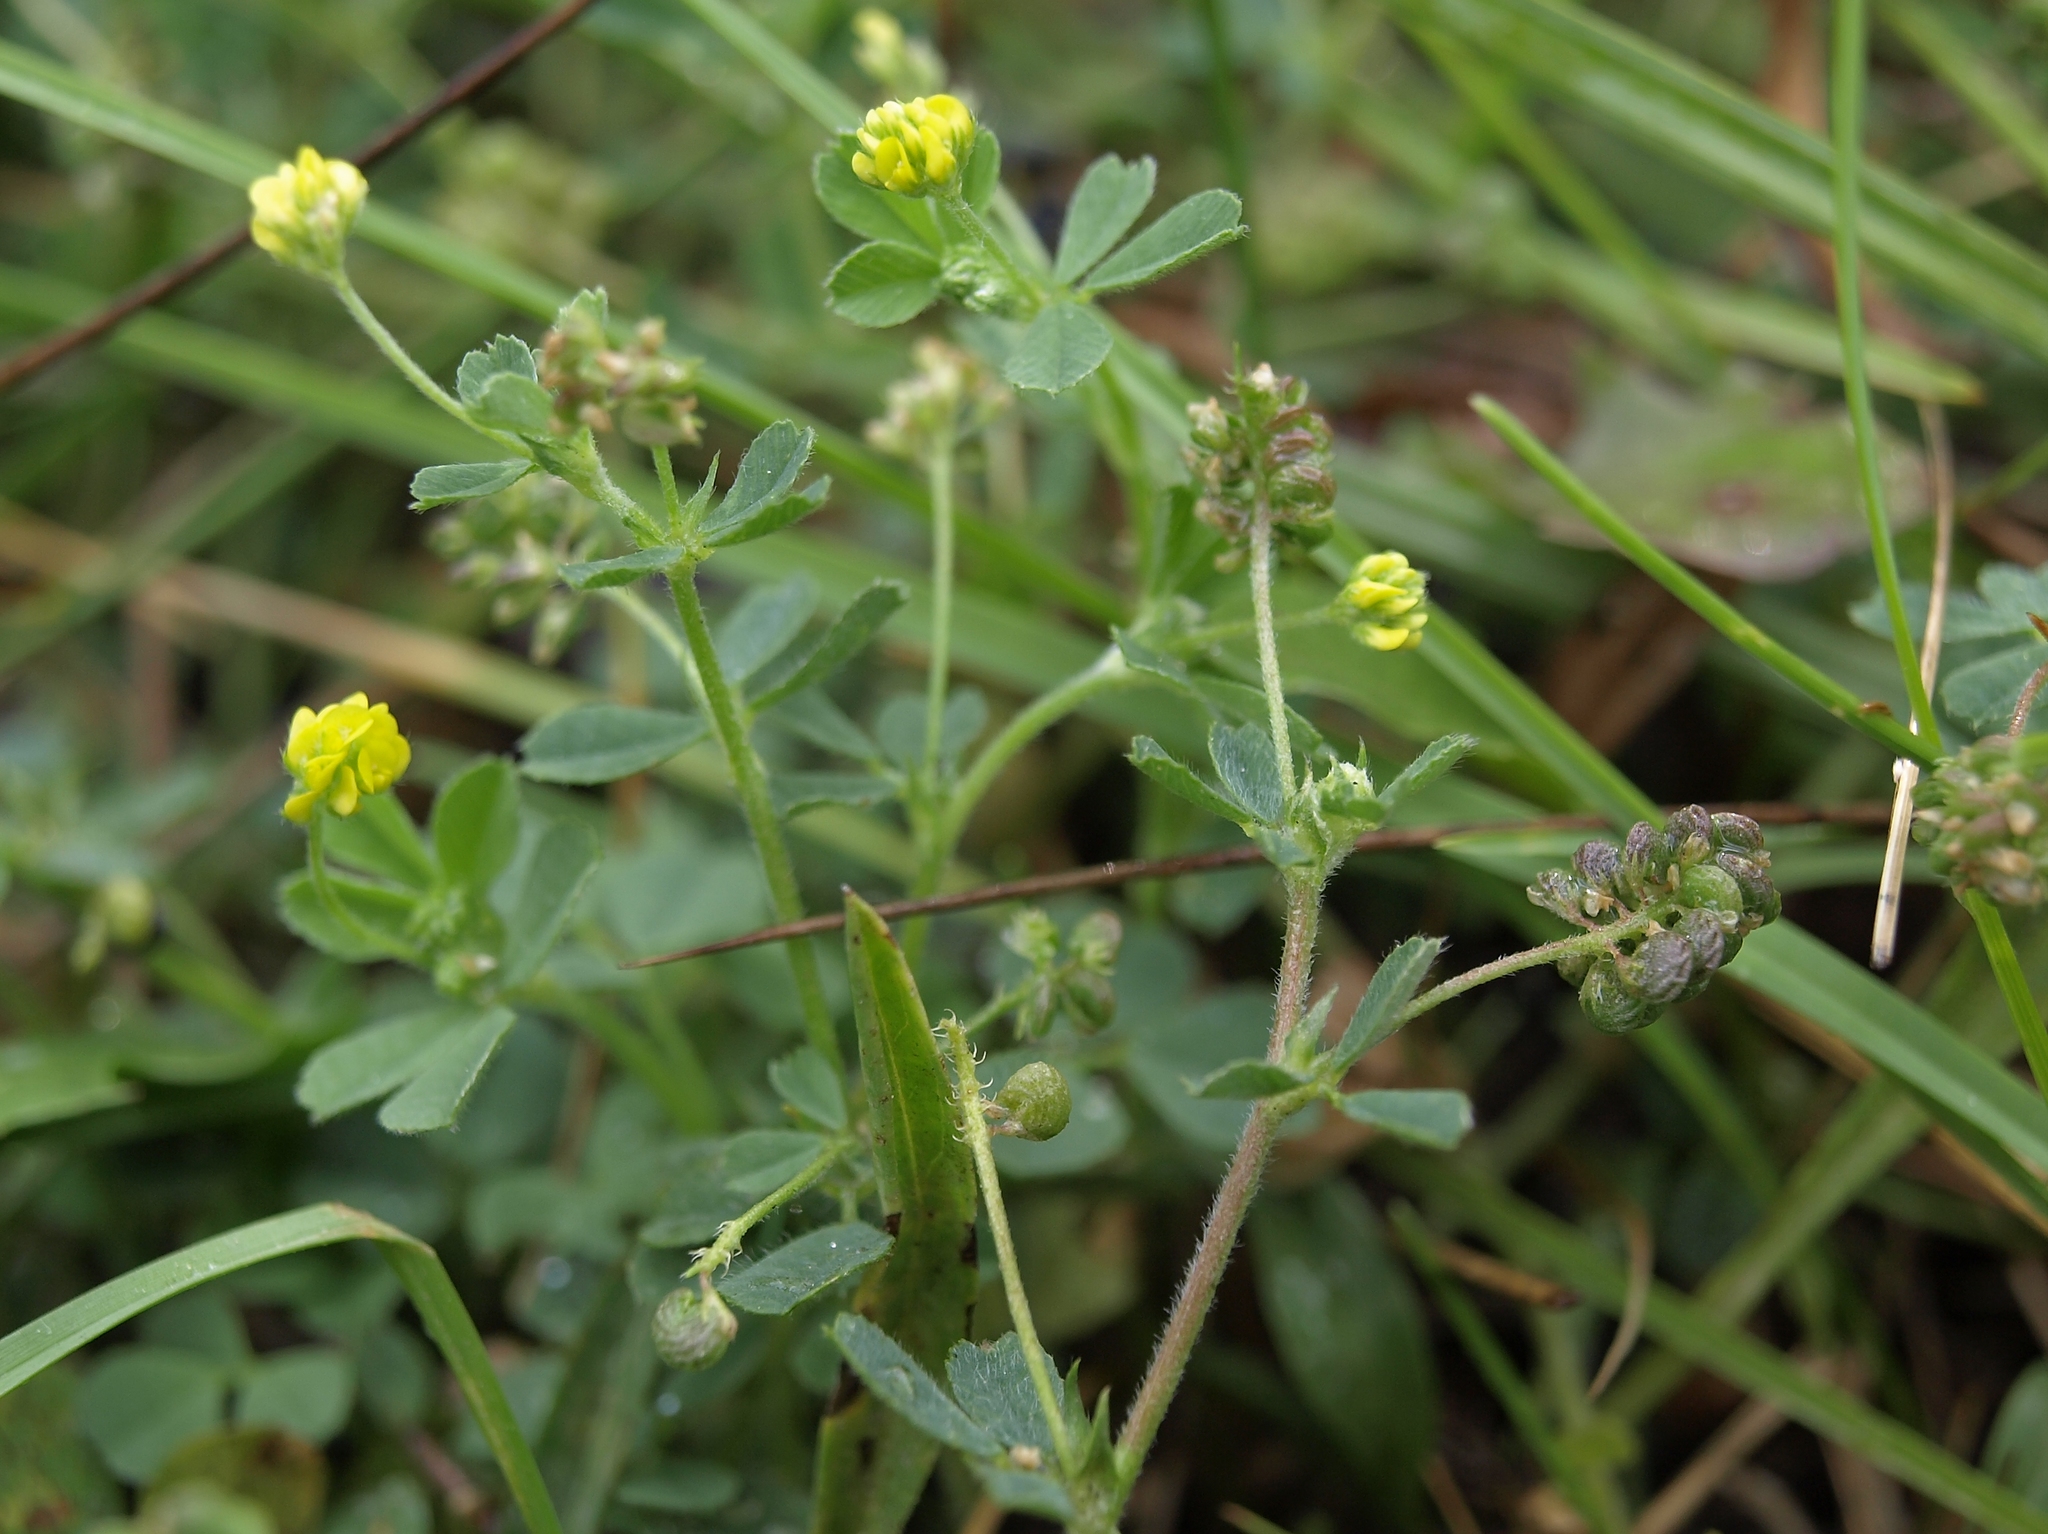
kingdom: Plantae
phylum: Tracheophyta
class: Magnoliopsida
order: Fabales
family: Fabaceae
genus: Medicago
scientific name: Medicago lupulina
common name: Black medick
